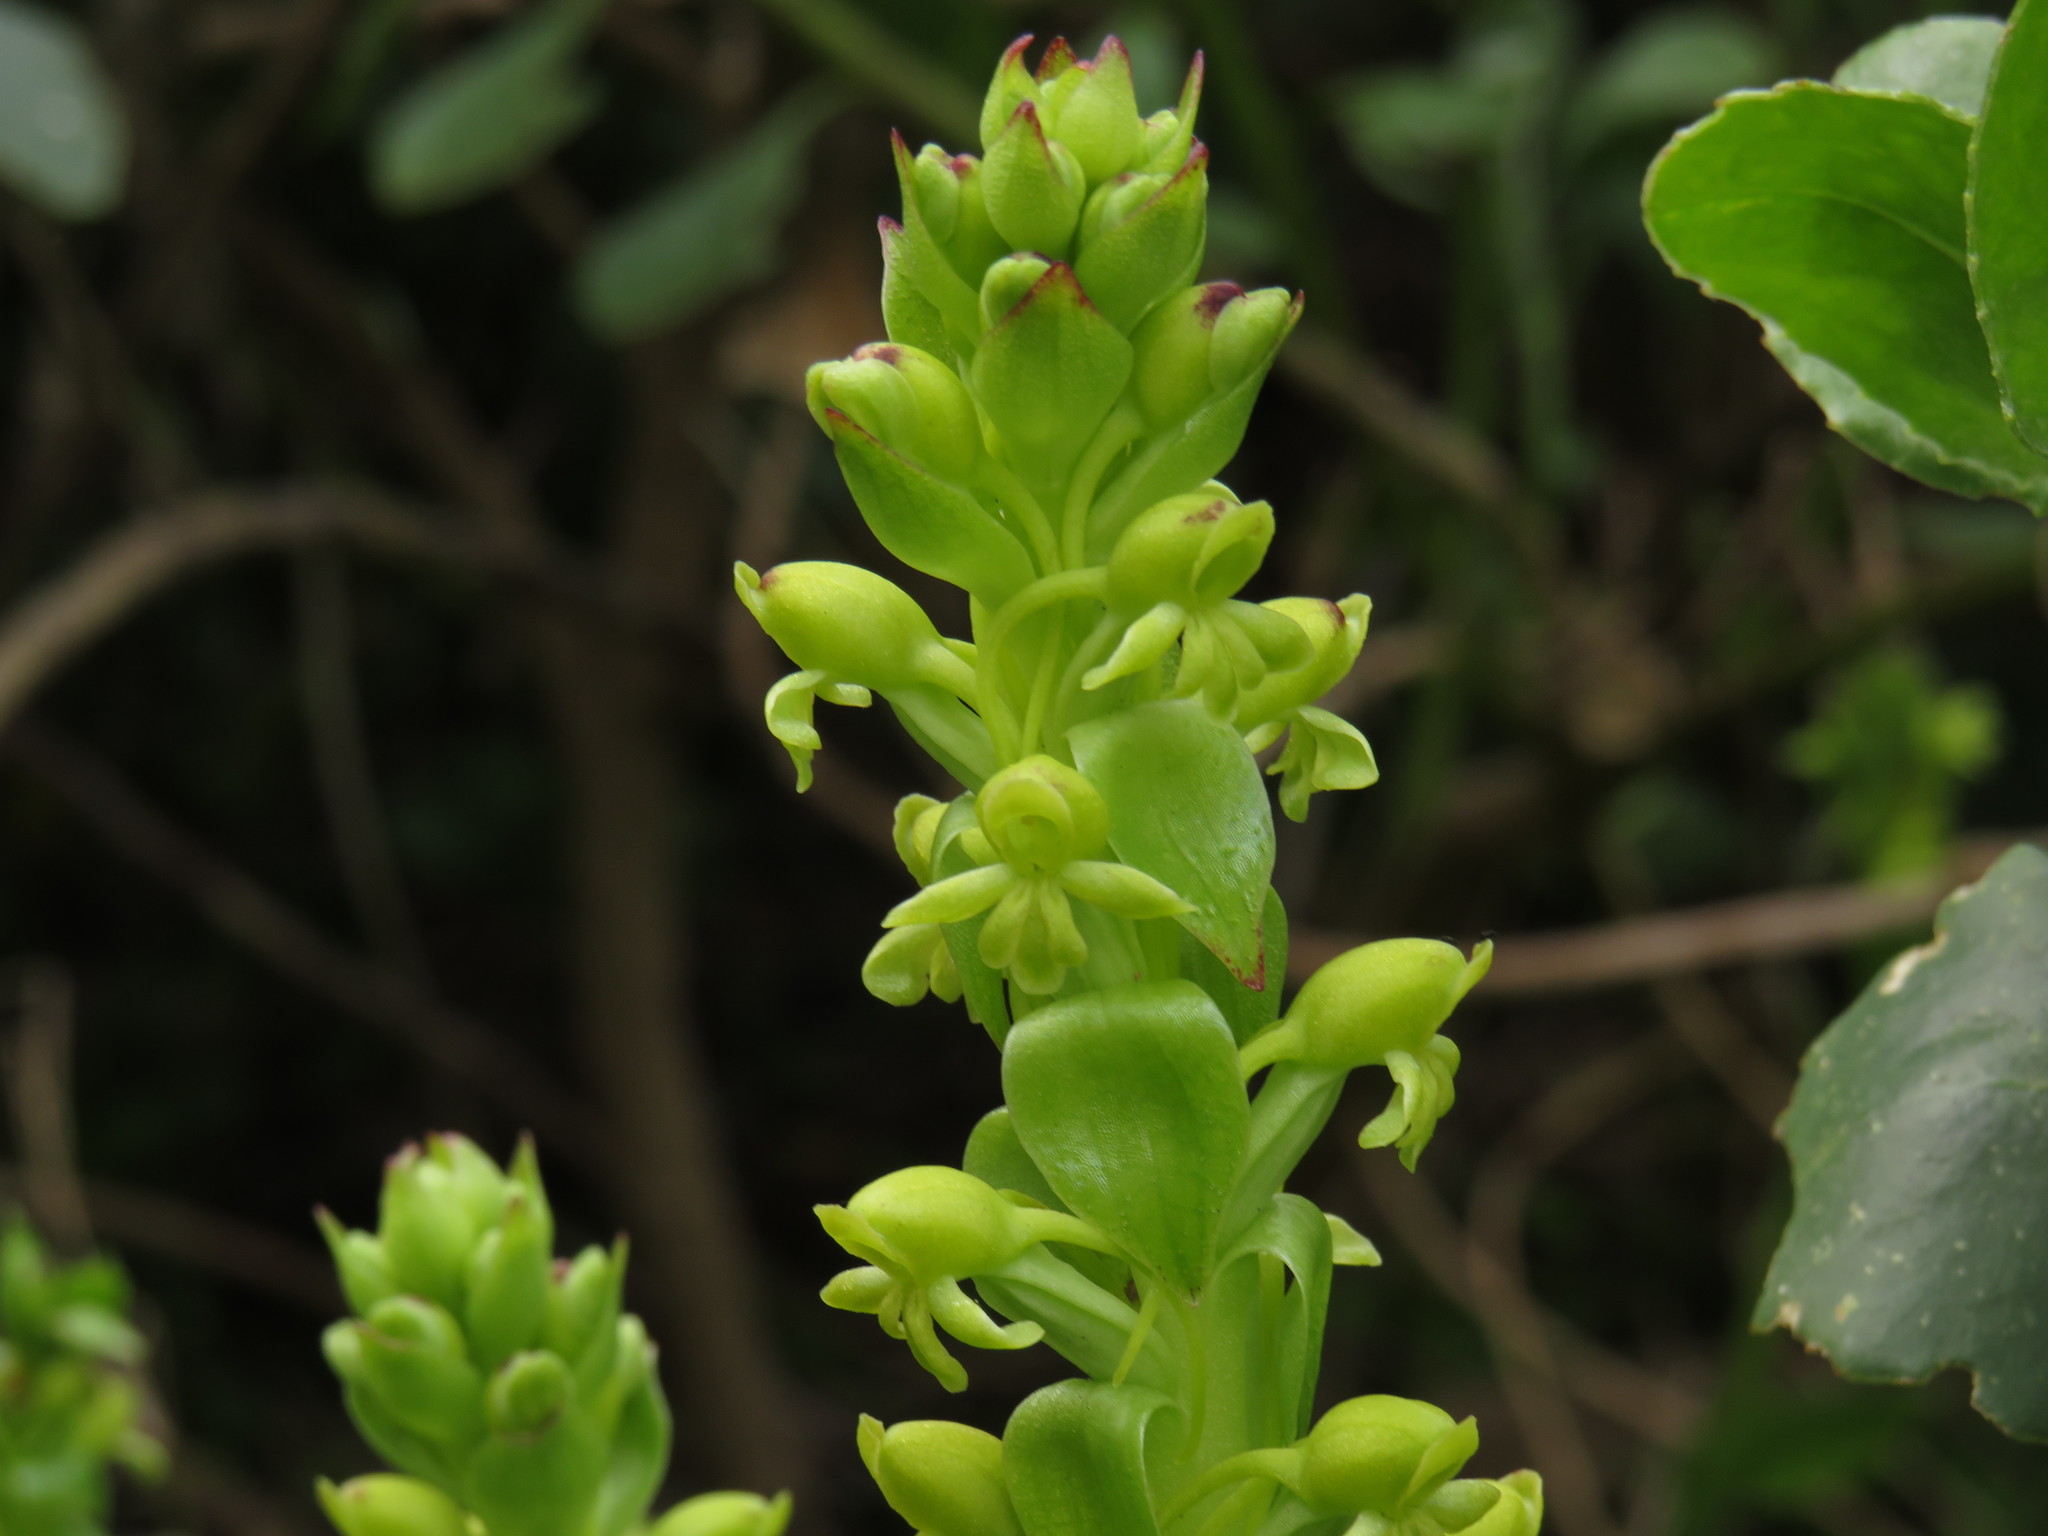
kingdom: Plantae
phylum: Tracheophyta
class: Liliopsida
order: Asparagales
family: Orchidaceae
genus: Satyrium
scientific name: Satyrium odorum
